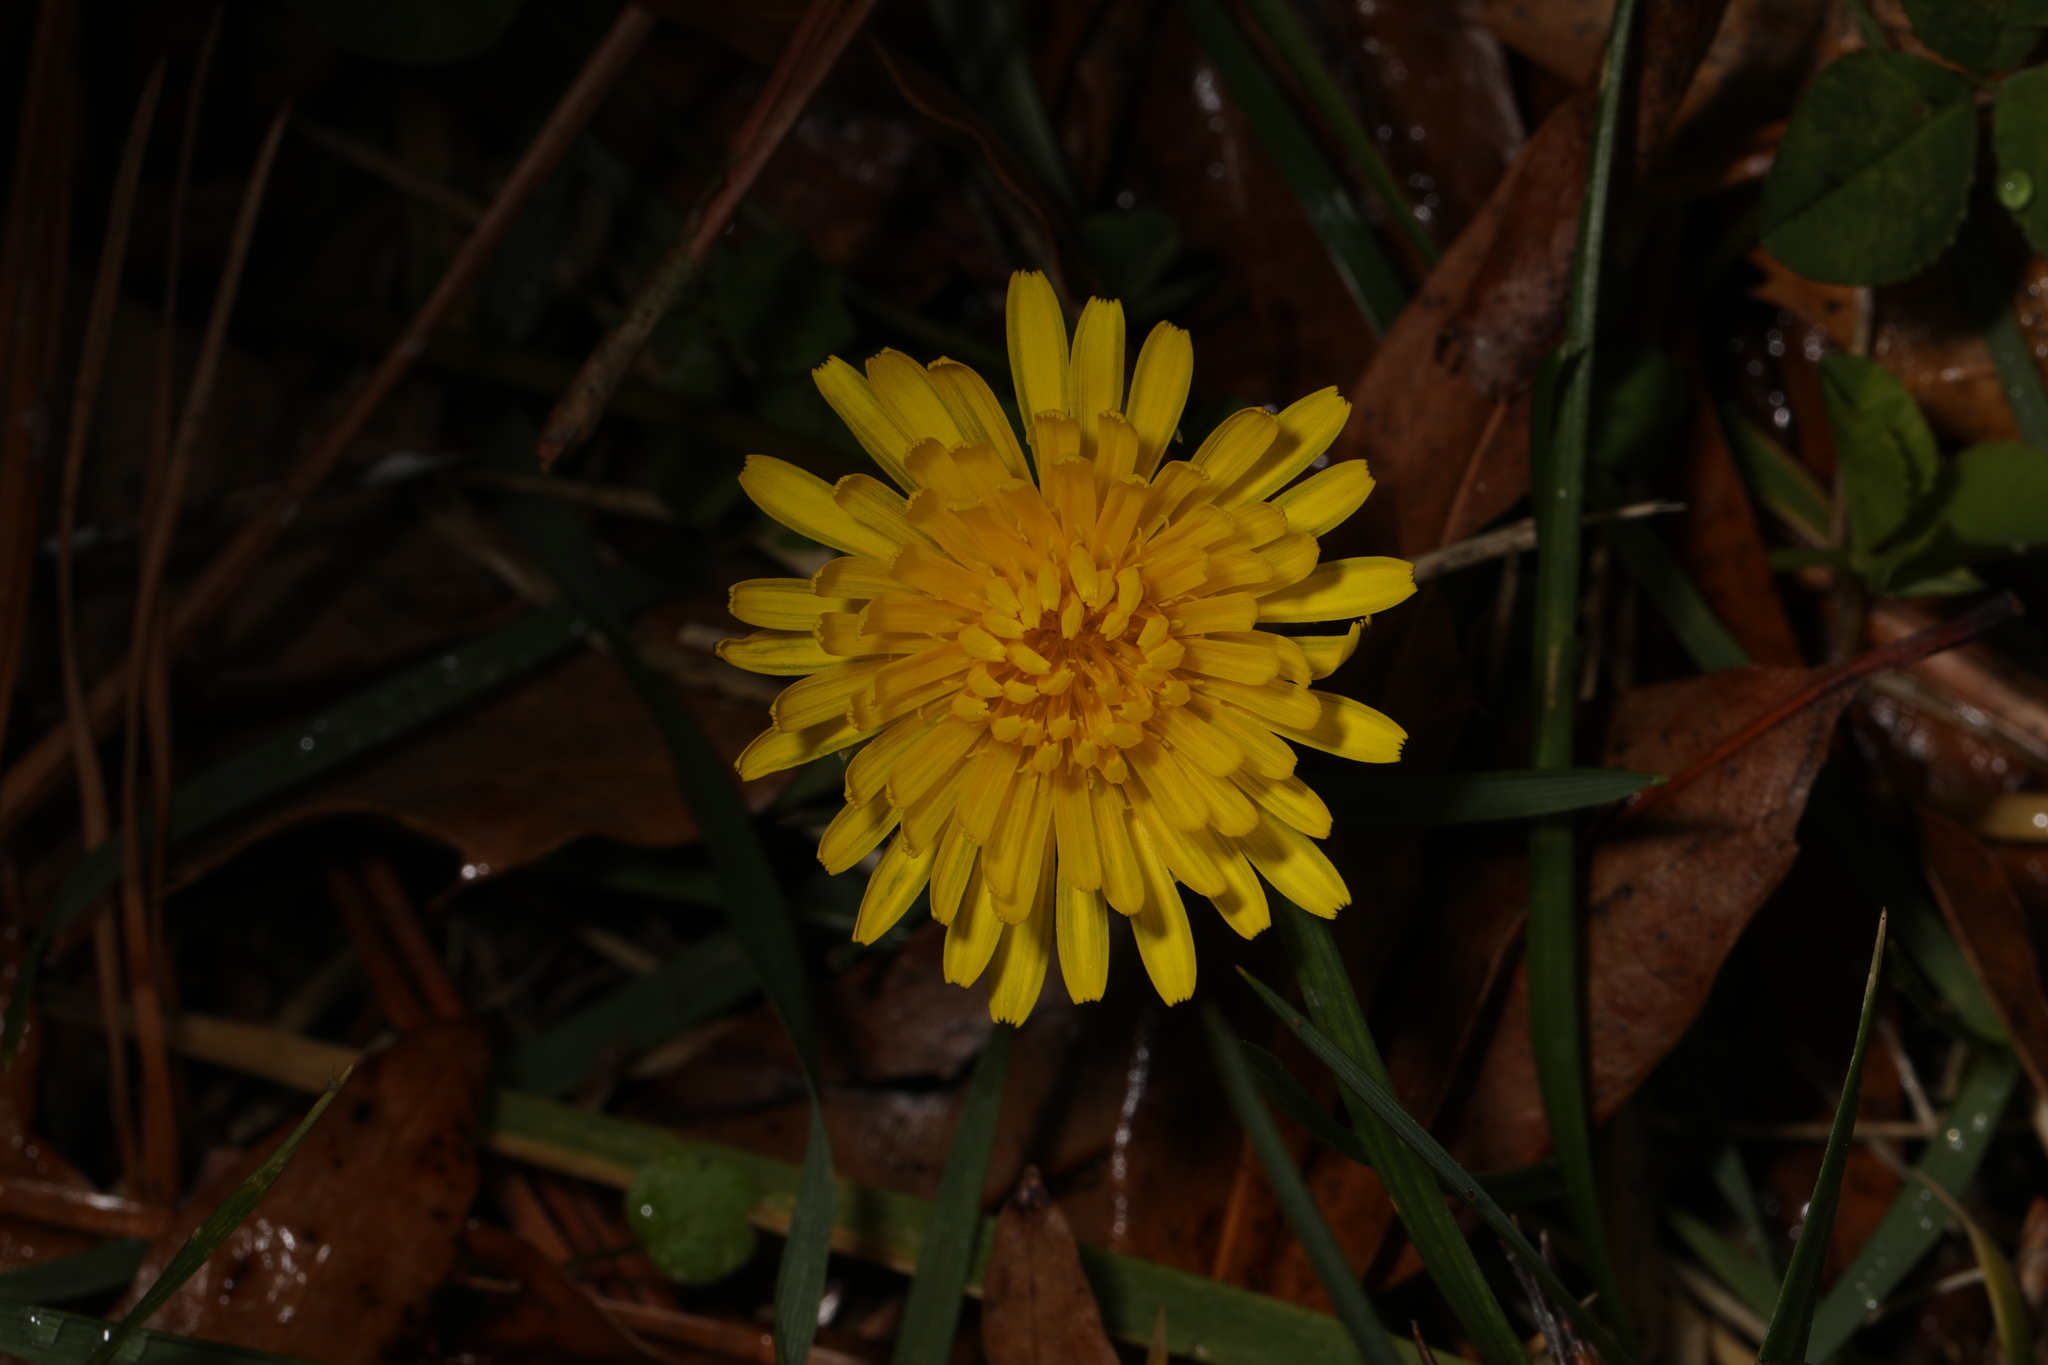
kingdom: Plantae
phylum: Tracheophyta
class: Magnoliopsida
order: Asterales
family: Asteraceae
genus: Taraxacum
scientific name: Taraxacum officinale
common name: Common dandelion
